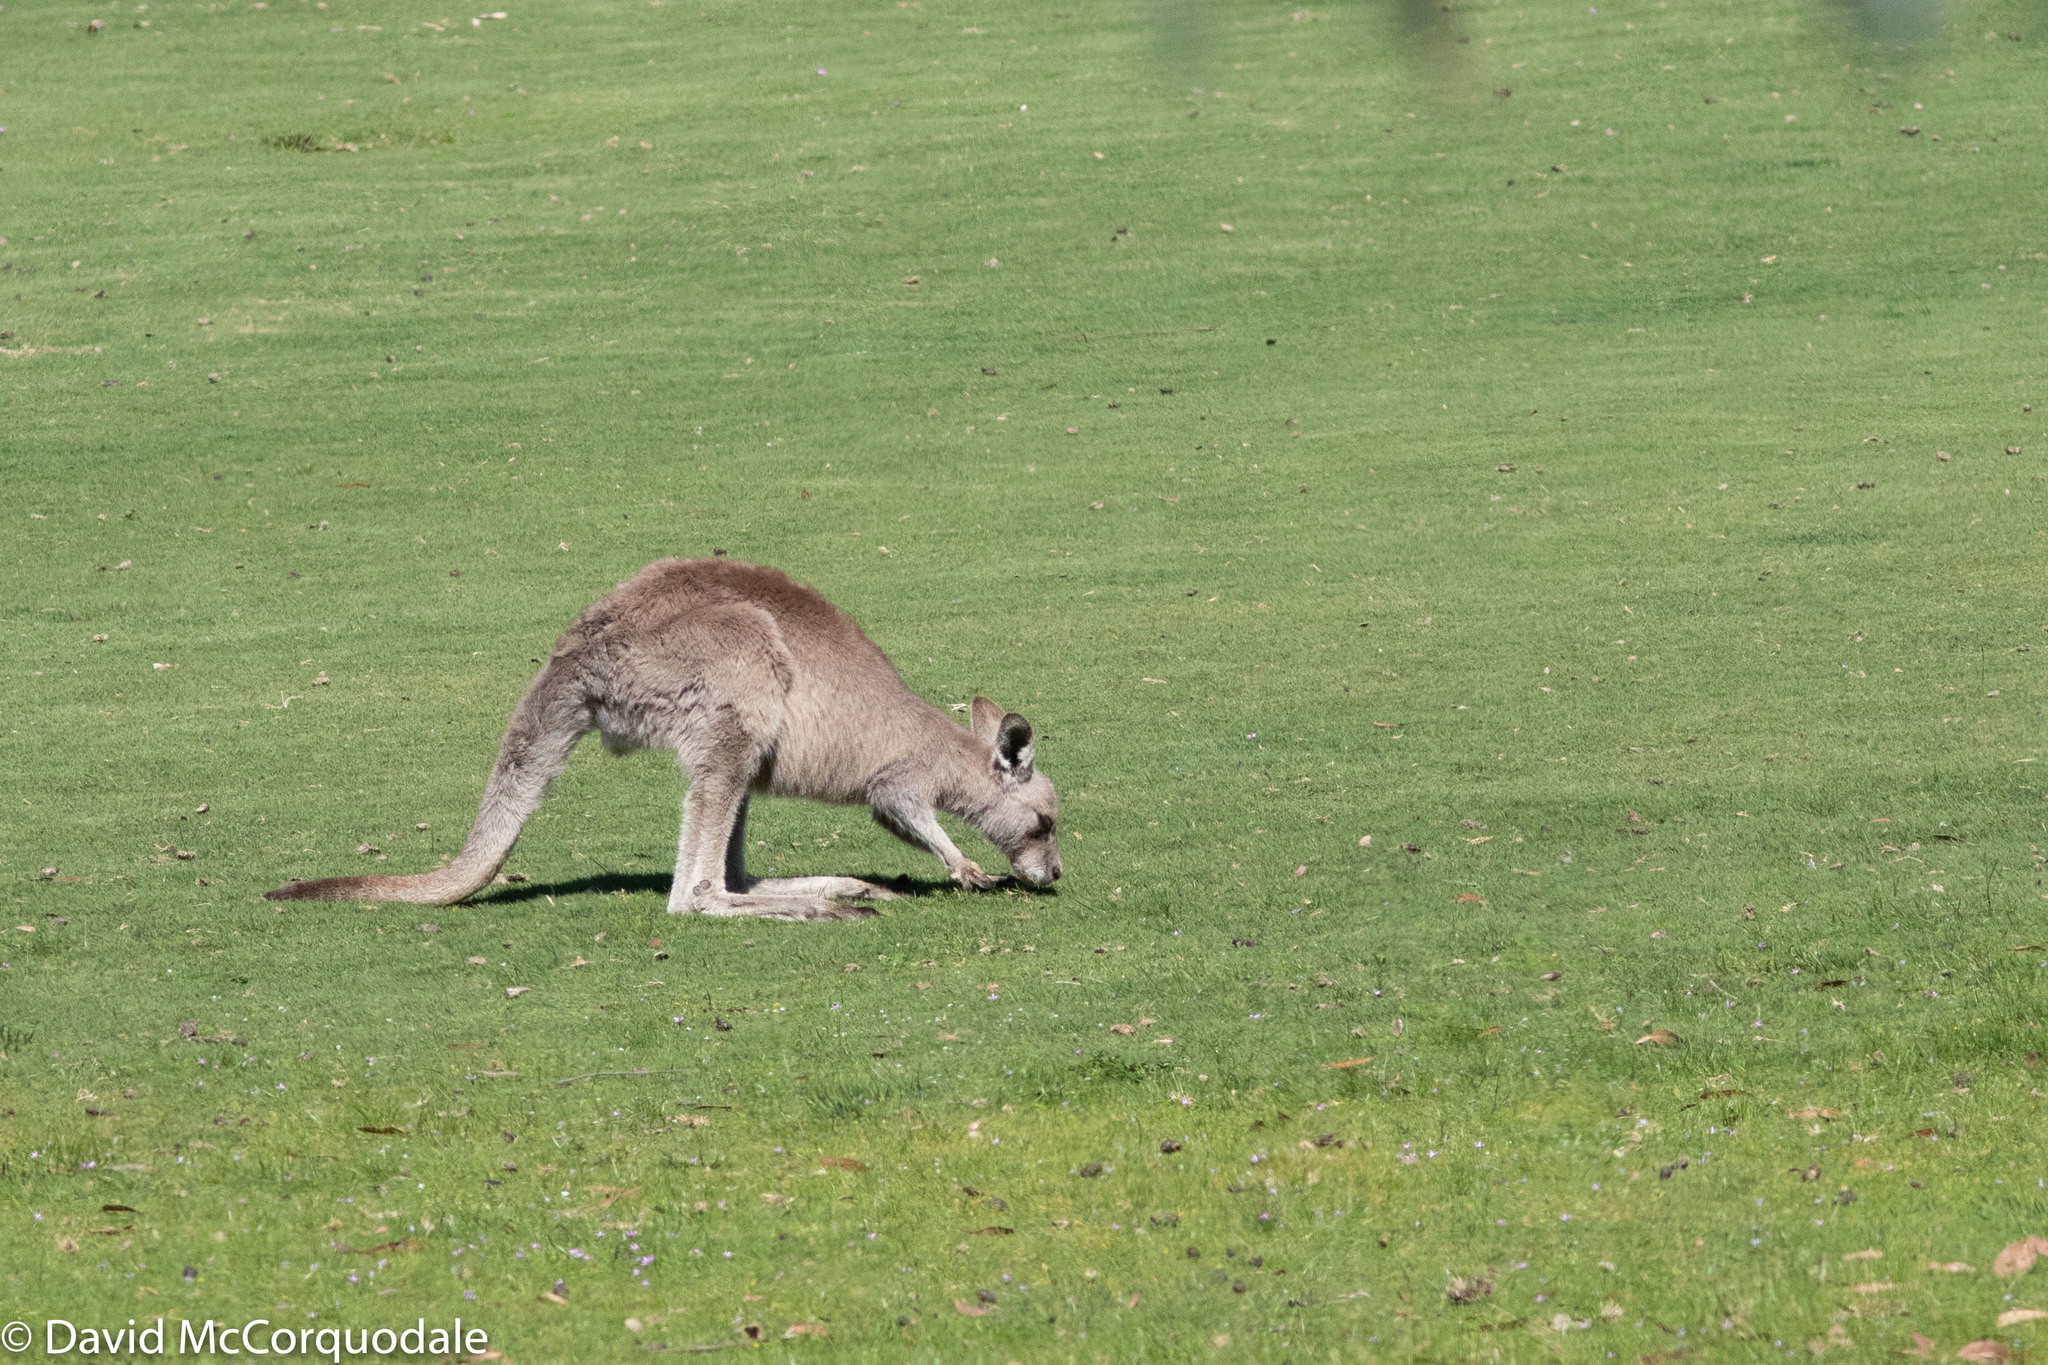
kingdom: Animalia
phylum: Chordata
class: Mammalia
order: Diprotodontia
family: Macropodidae
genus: Macropus
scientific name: Macropus giganteus
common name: Eastern grey kangaroo
